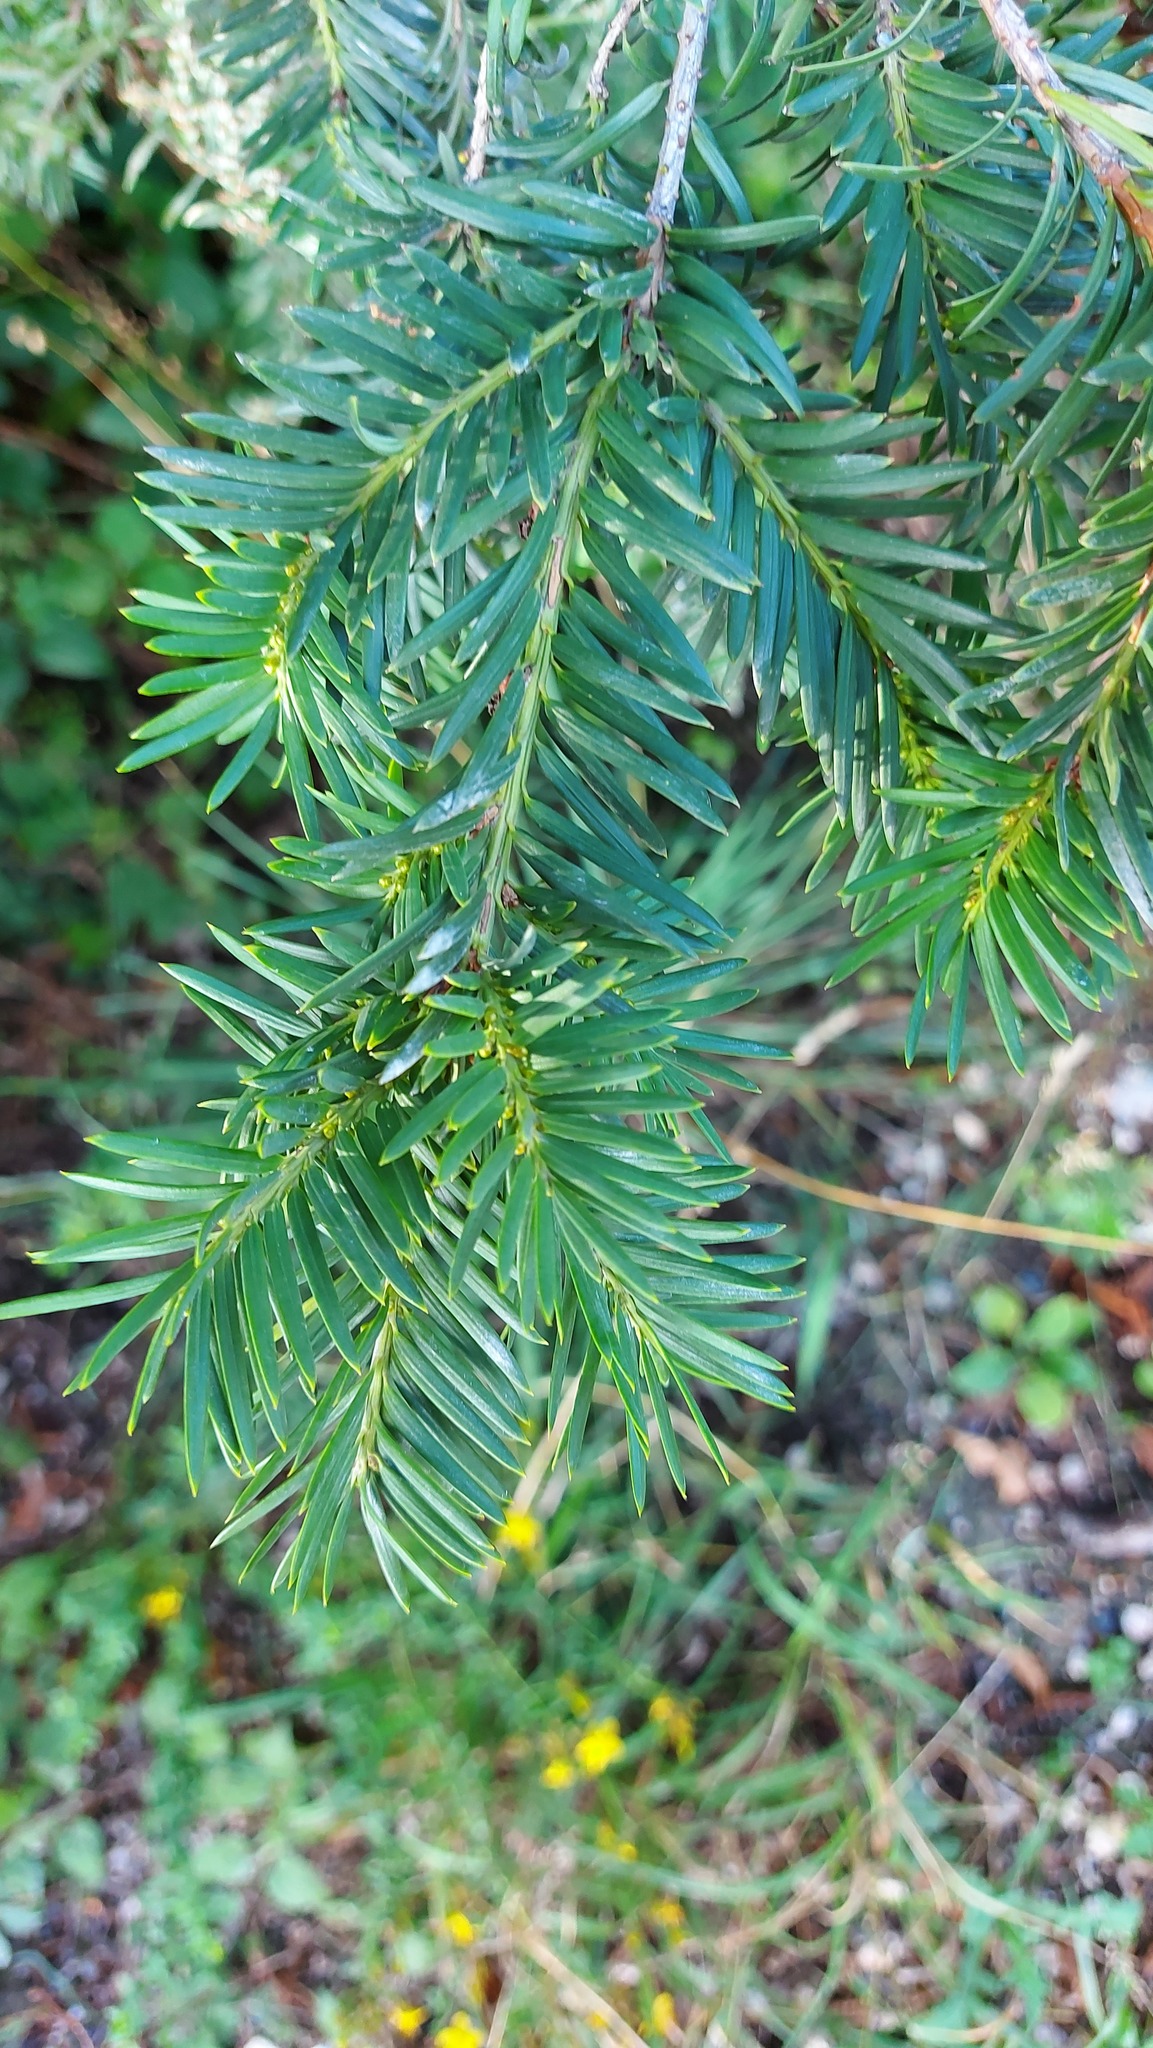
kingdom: Plantae
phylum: Tracheophyta
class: Pinopsida
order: Pinales
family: Taxaceae
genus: Taxus
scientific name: Taxus baccata
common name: Yew
